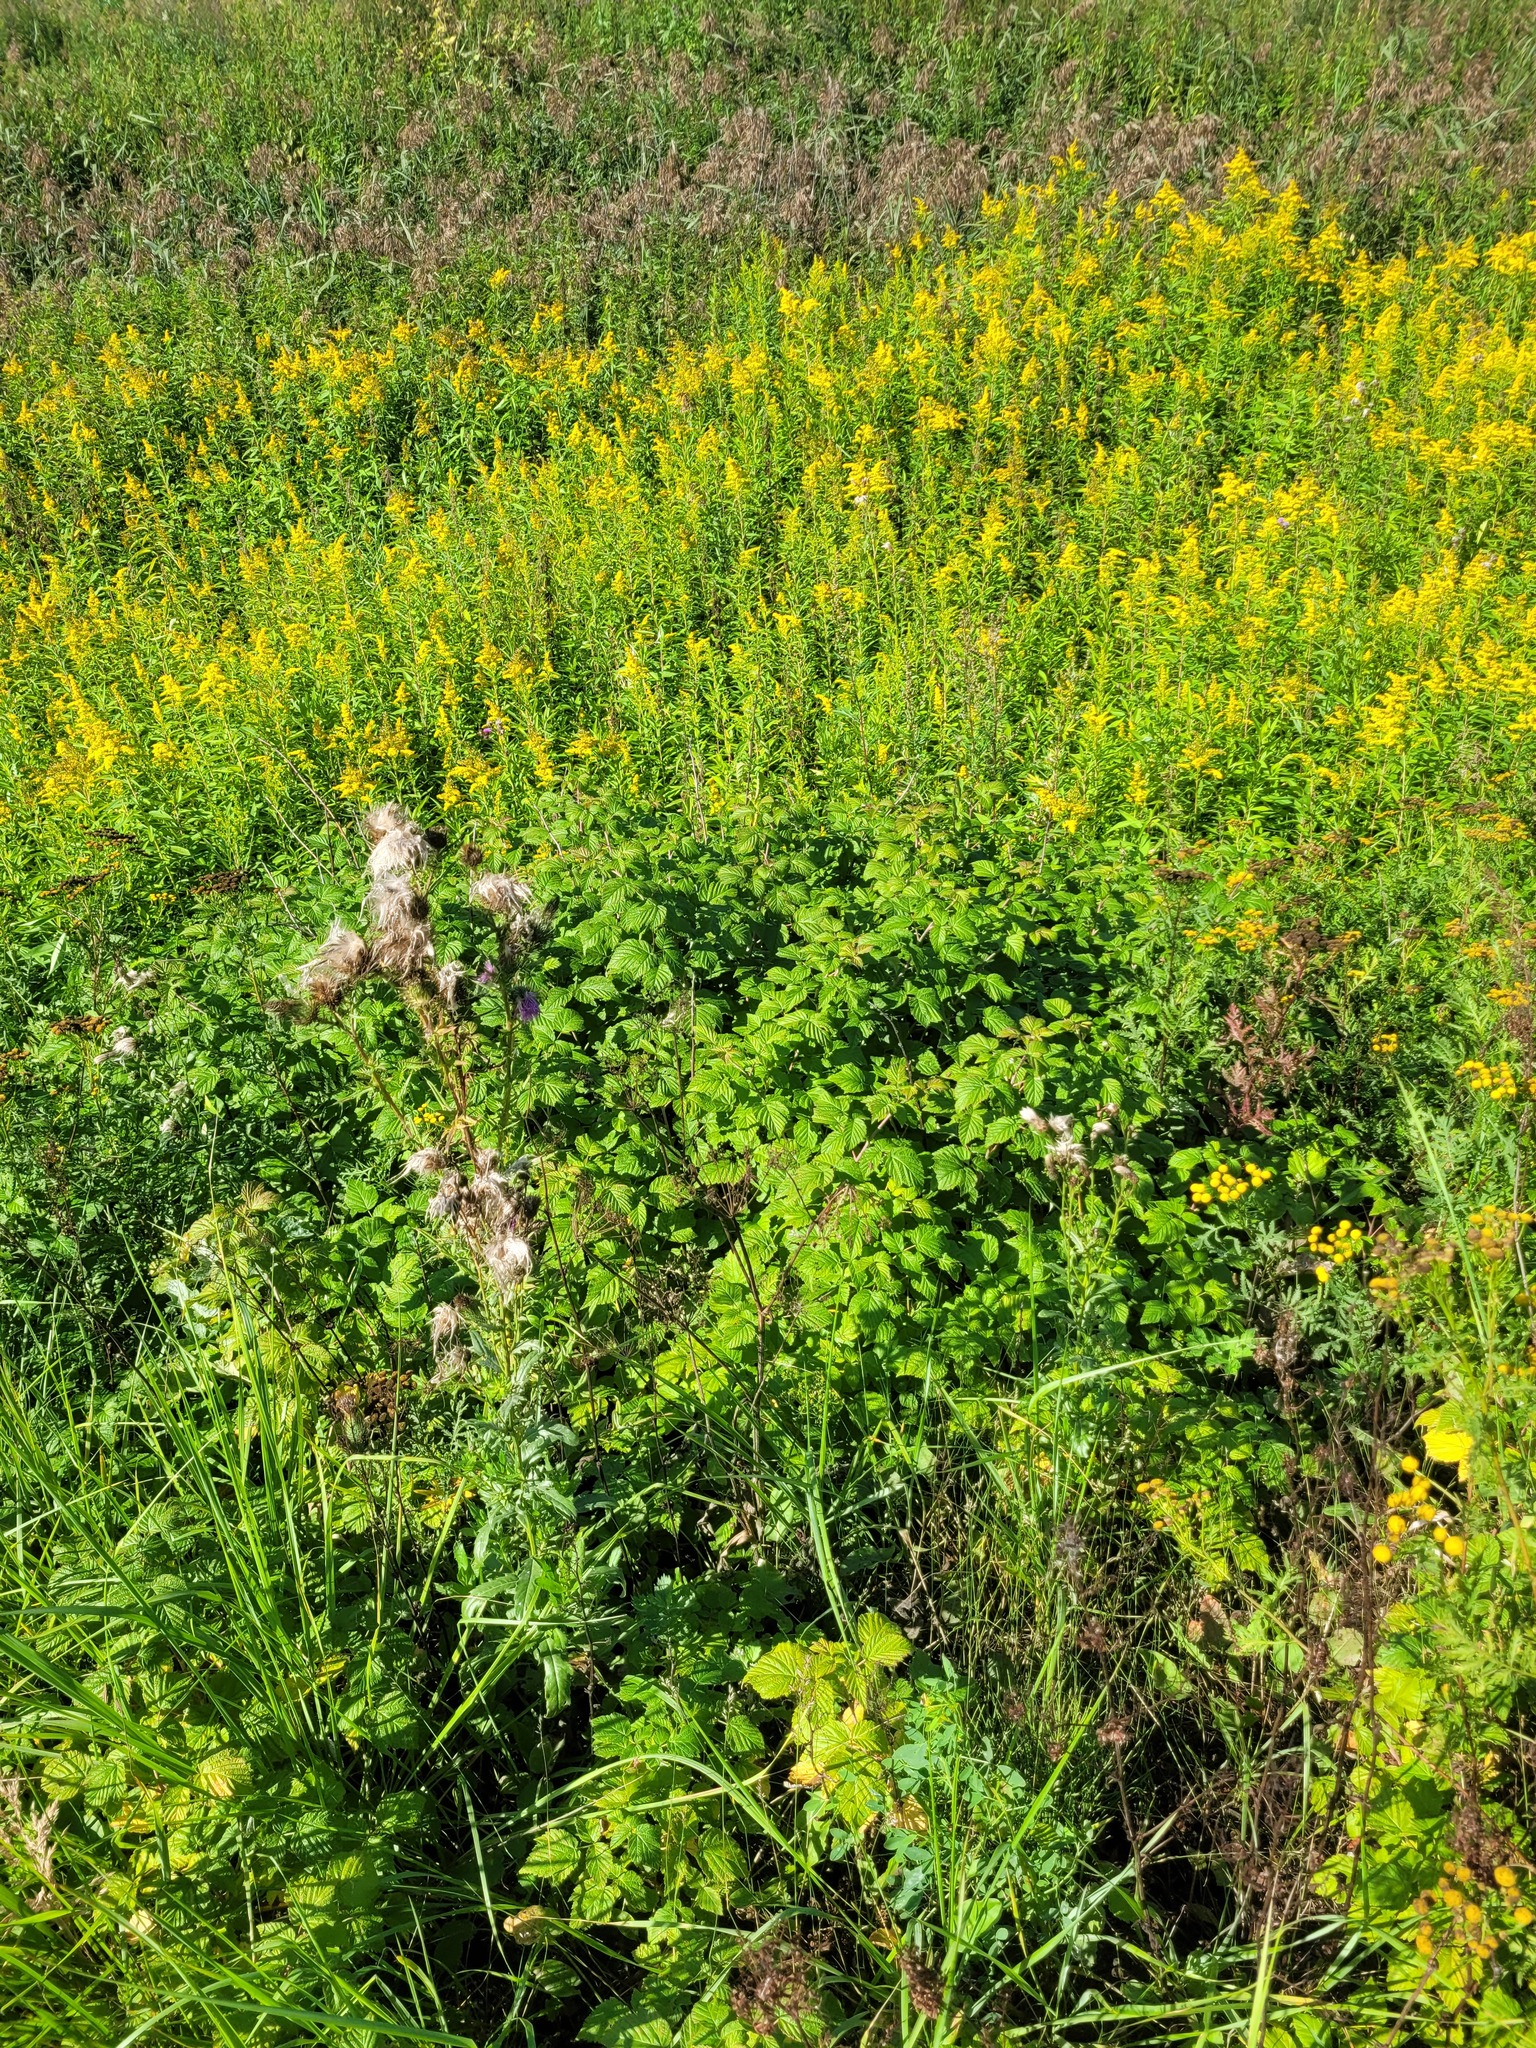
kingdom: Plantae
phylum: Tracheophyta
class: Magnoliopsida
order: Rosales
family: Rosaceae
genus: Rubus
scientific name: Rubus idaeus
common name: Raspberry
